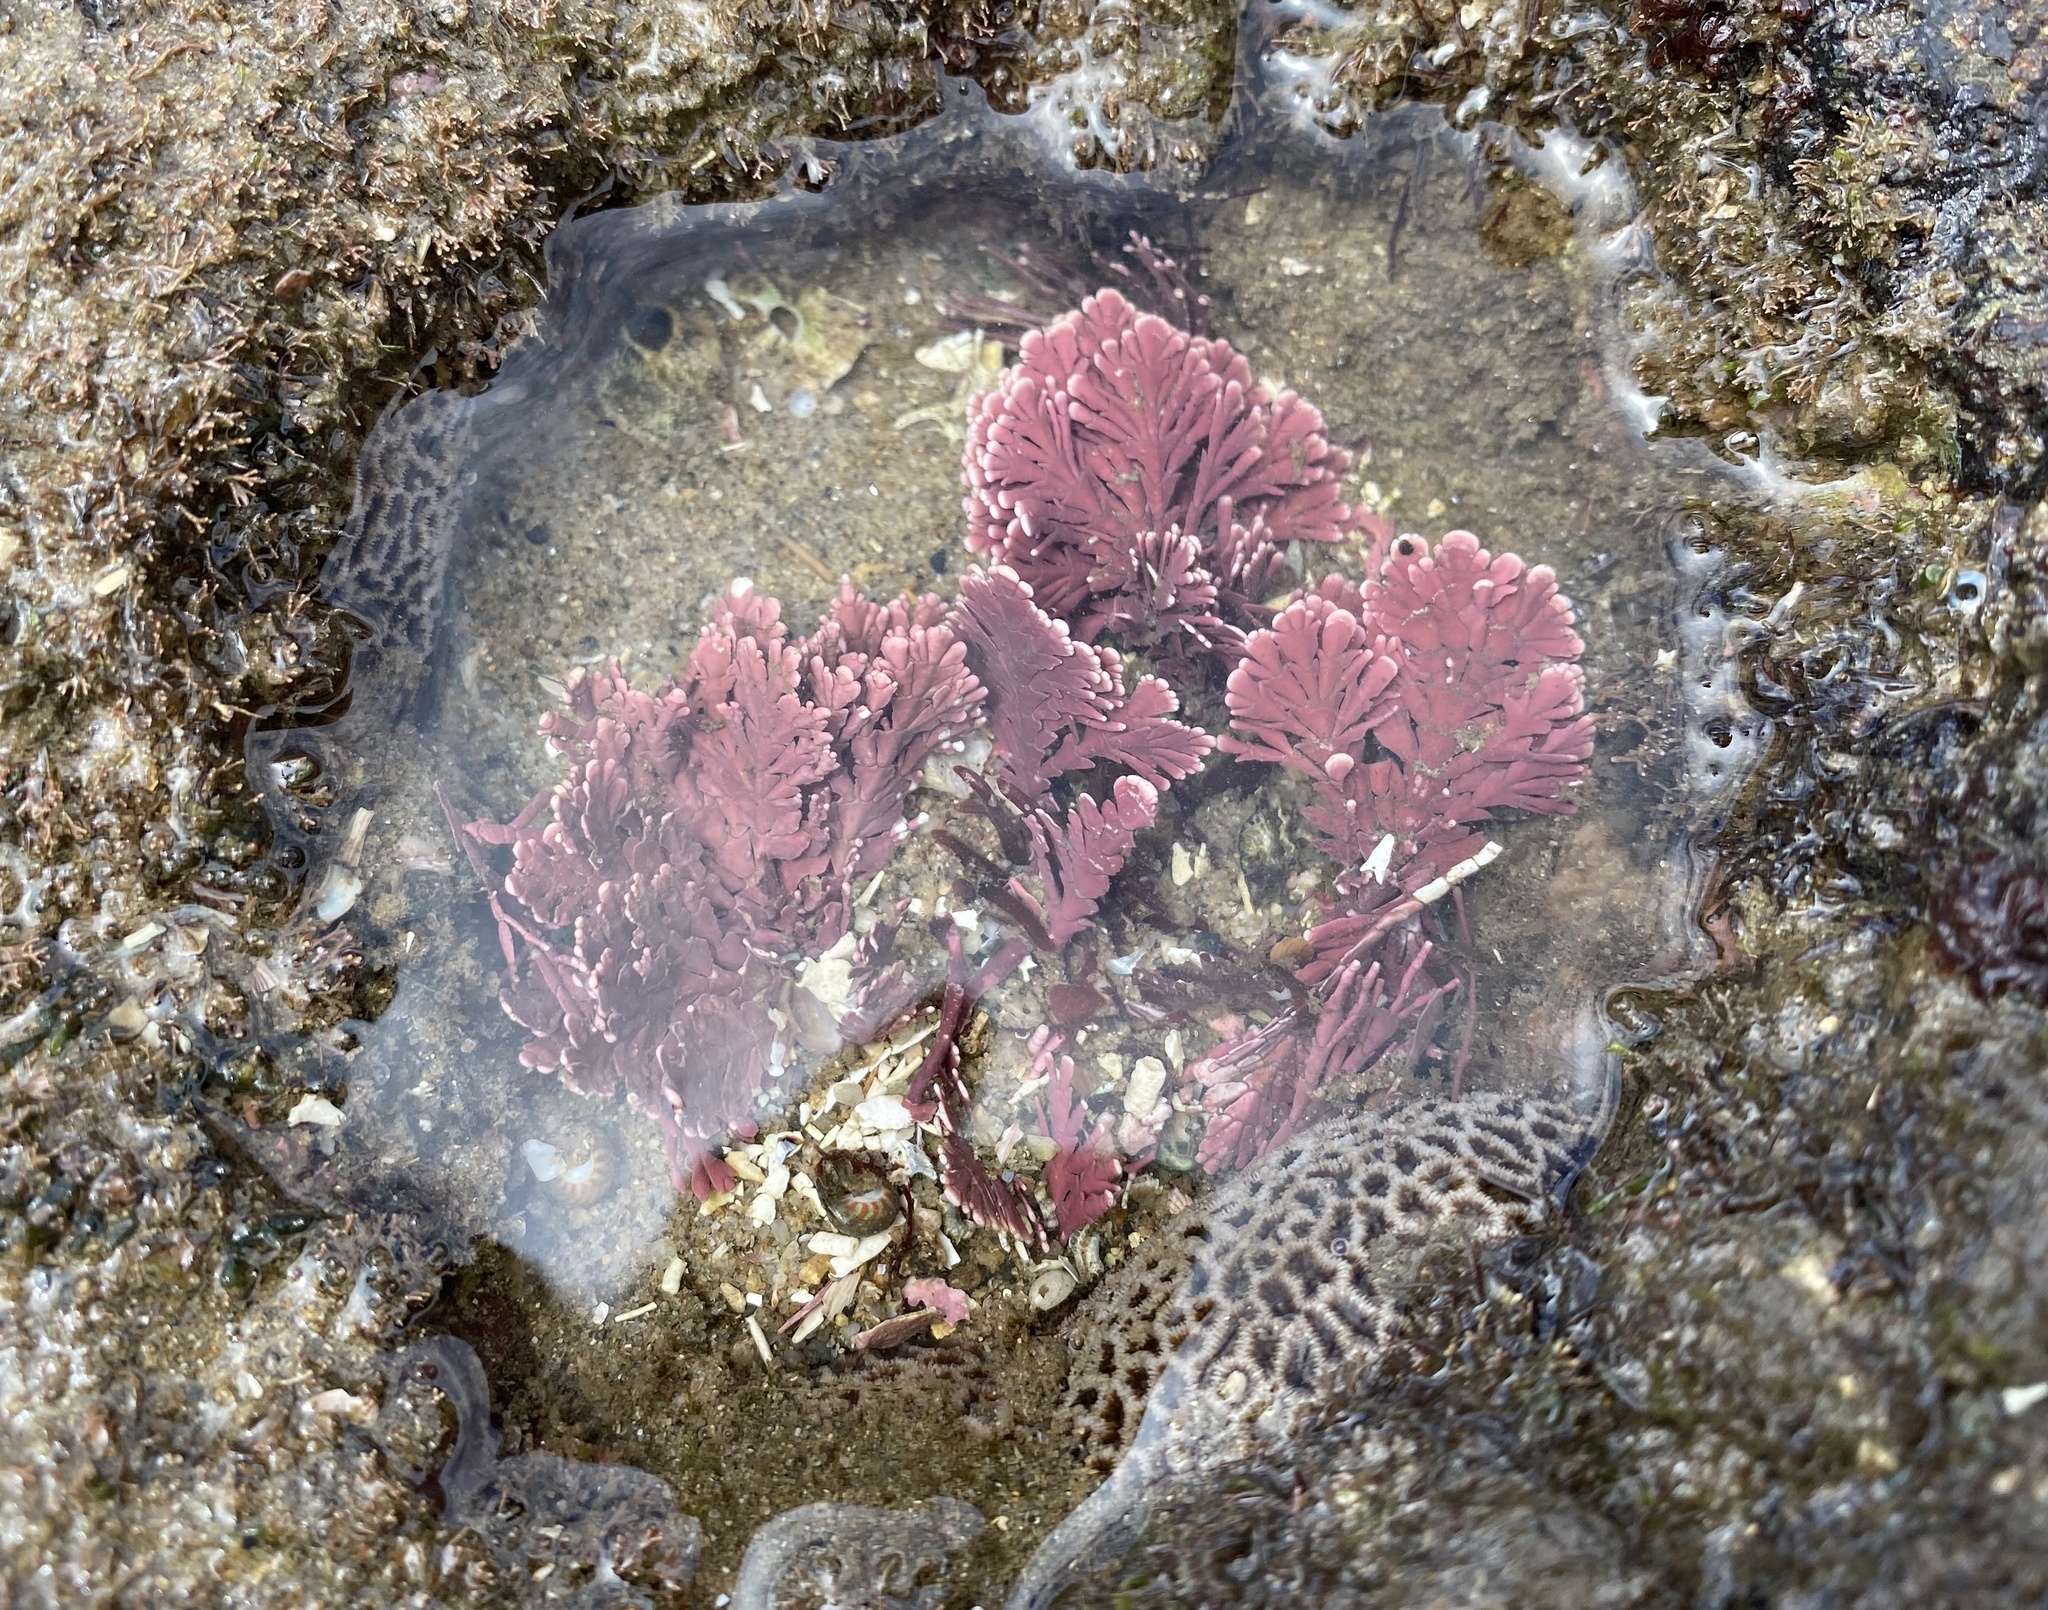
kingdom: Plantae
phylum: Rhodophyta
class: Florideophyceae
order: Corallinales
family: Corallinaceae
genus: Corallina
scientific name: Corallina officinalis
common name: Coral weed
